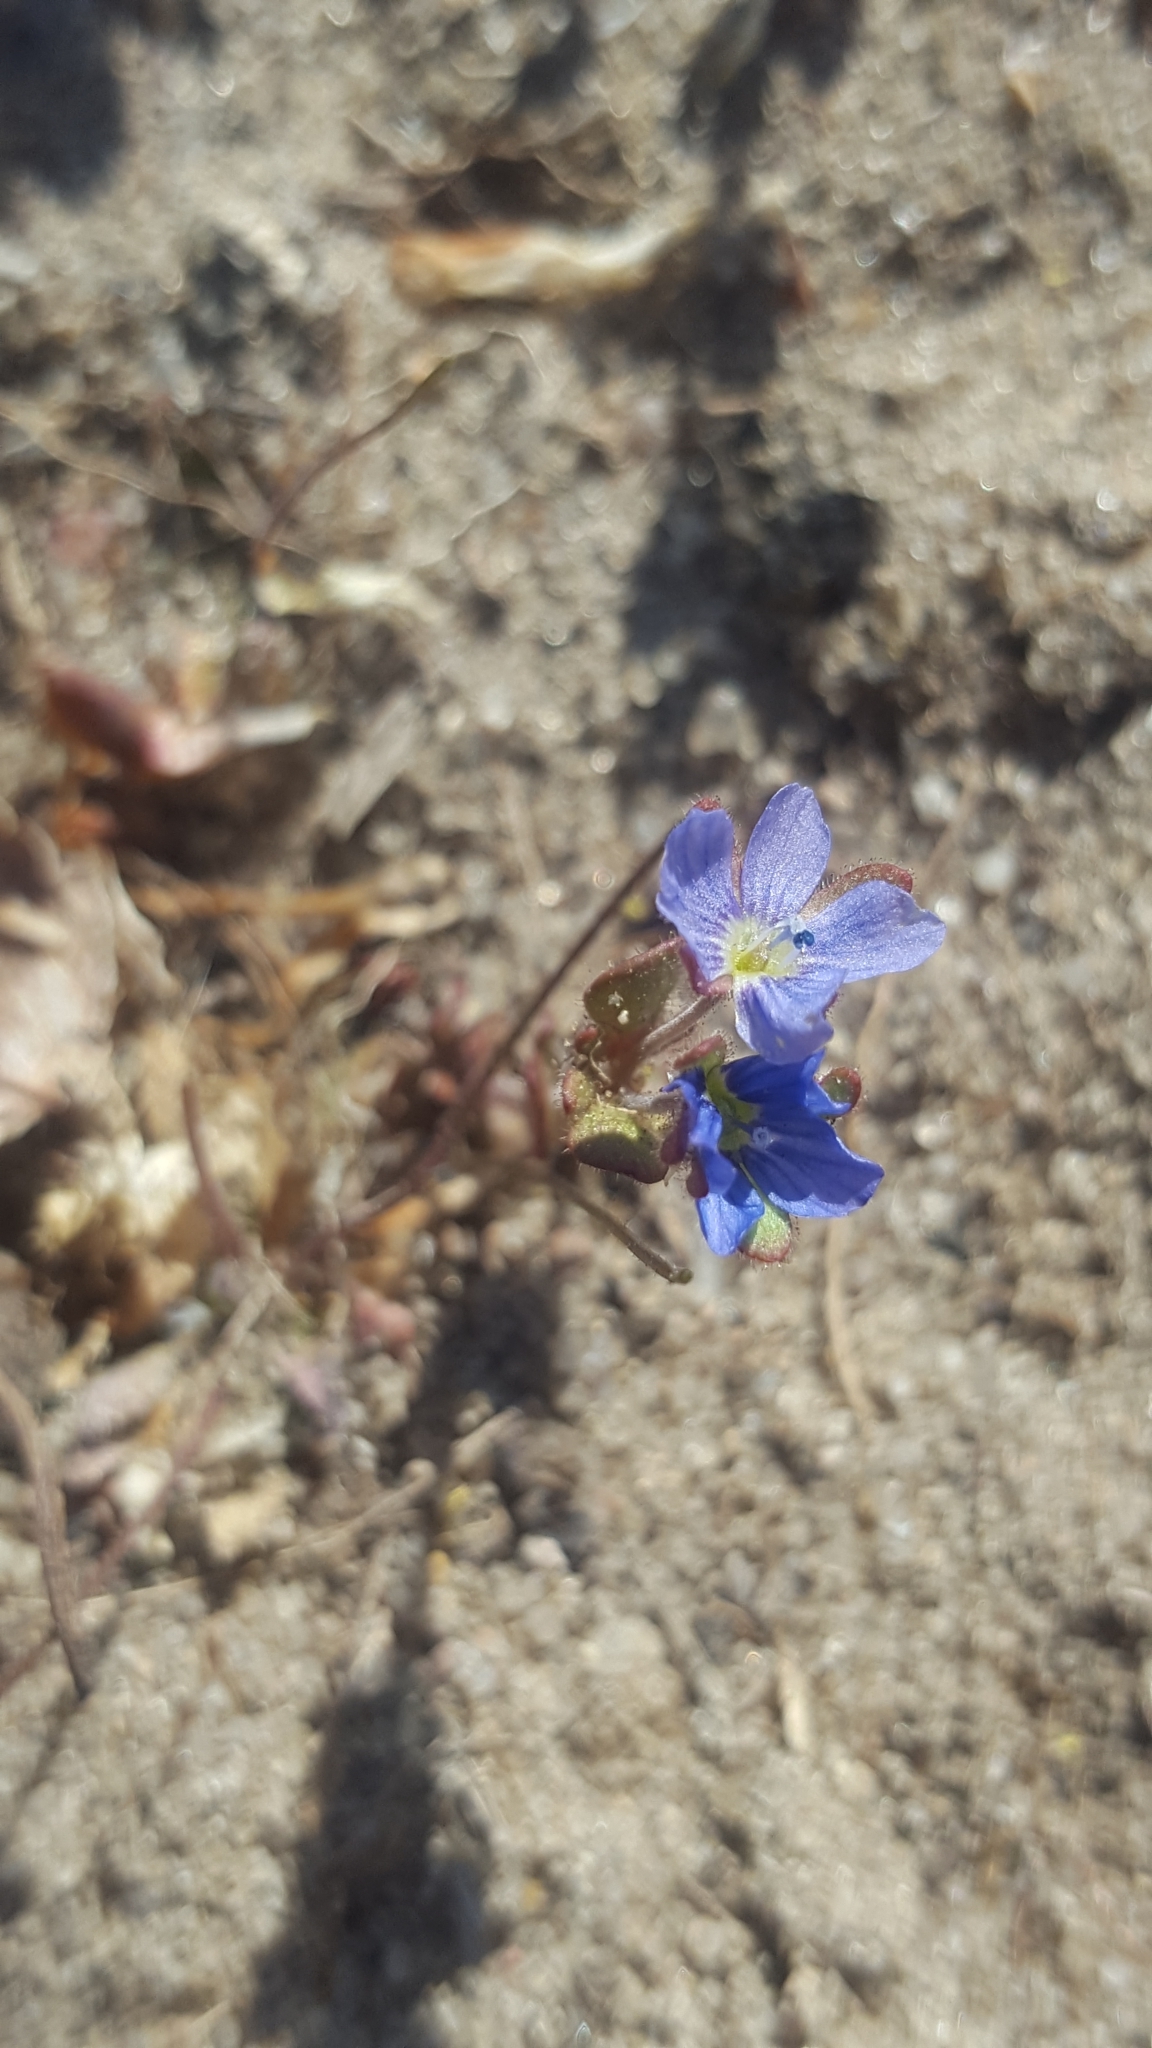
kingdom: Plantae
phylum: Tracheophyta
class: Magnoliopsida
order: Lamiales
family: Plantaginaceae
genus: Veronica
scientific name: Veronica triphyllos
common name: Fingered speedwell
